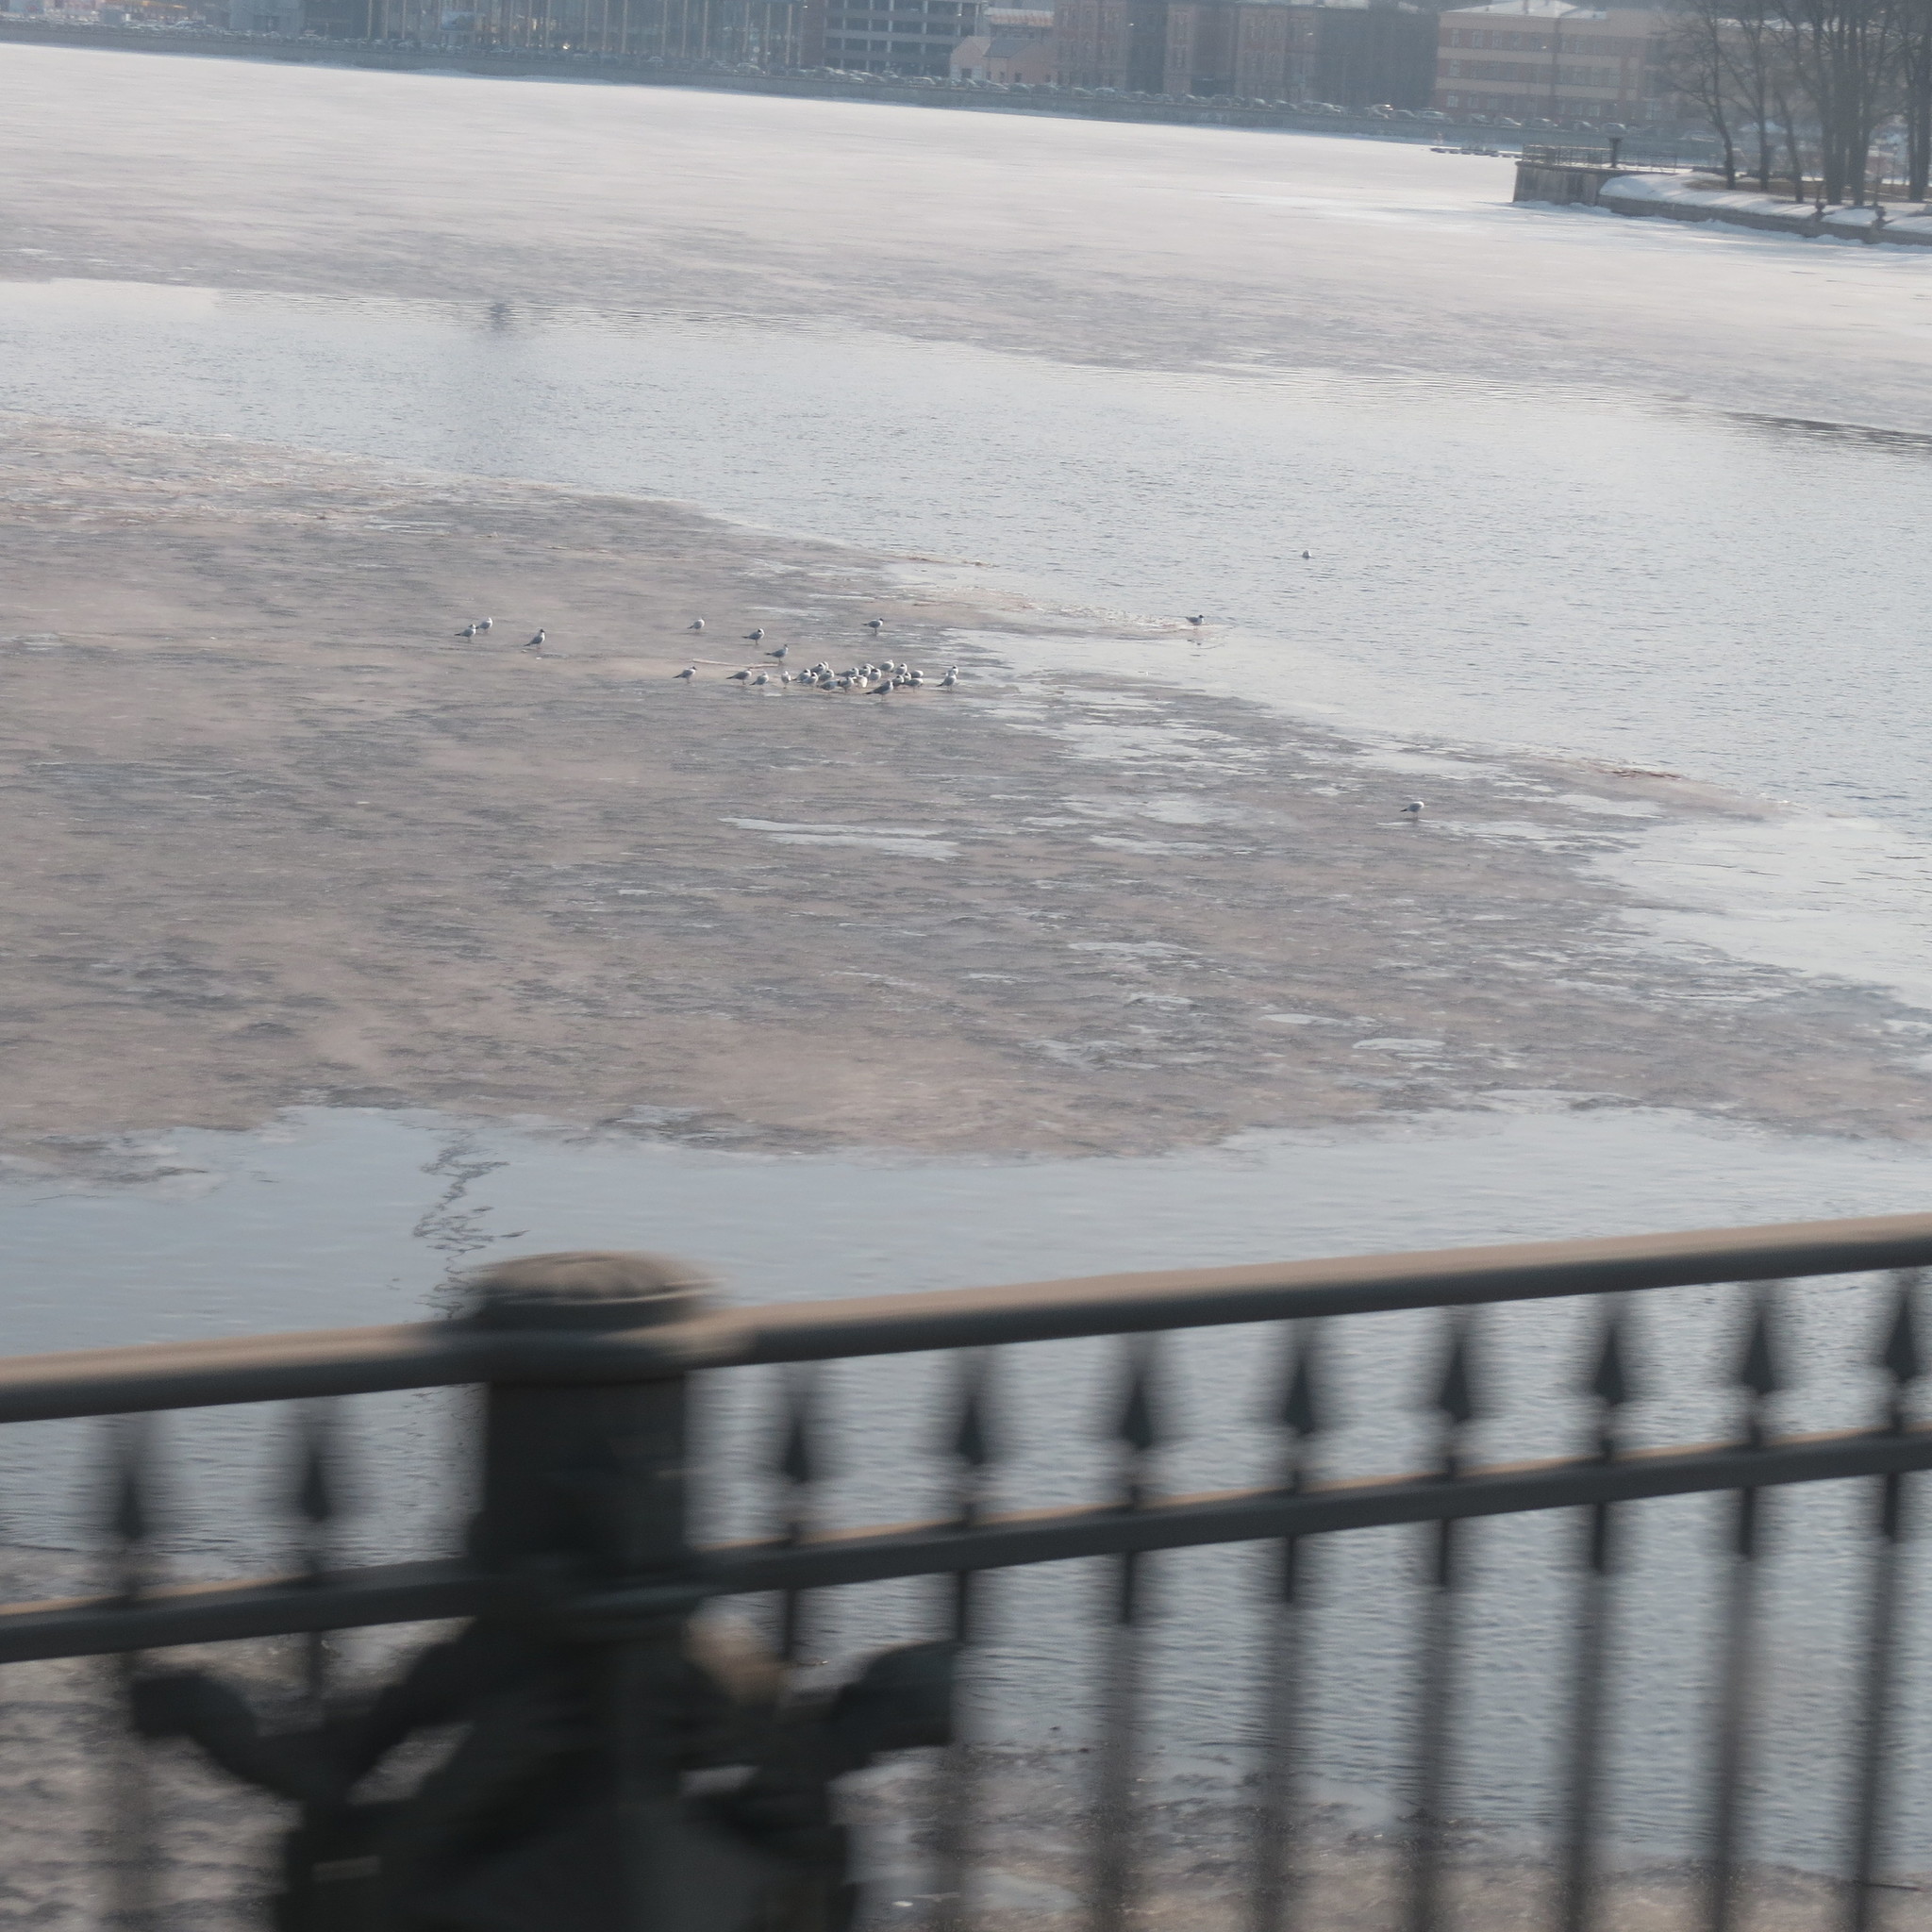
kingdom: Animalia
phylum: Chordata
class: Aves
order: Charadriiformes
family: Laridae
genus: Chroicocephalus
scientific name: Chroicocephalus ridibundus
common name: Black-headed gull
